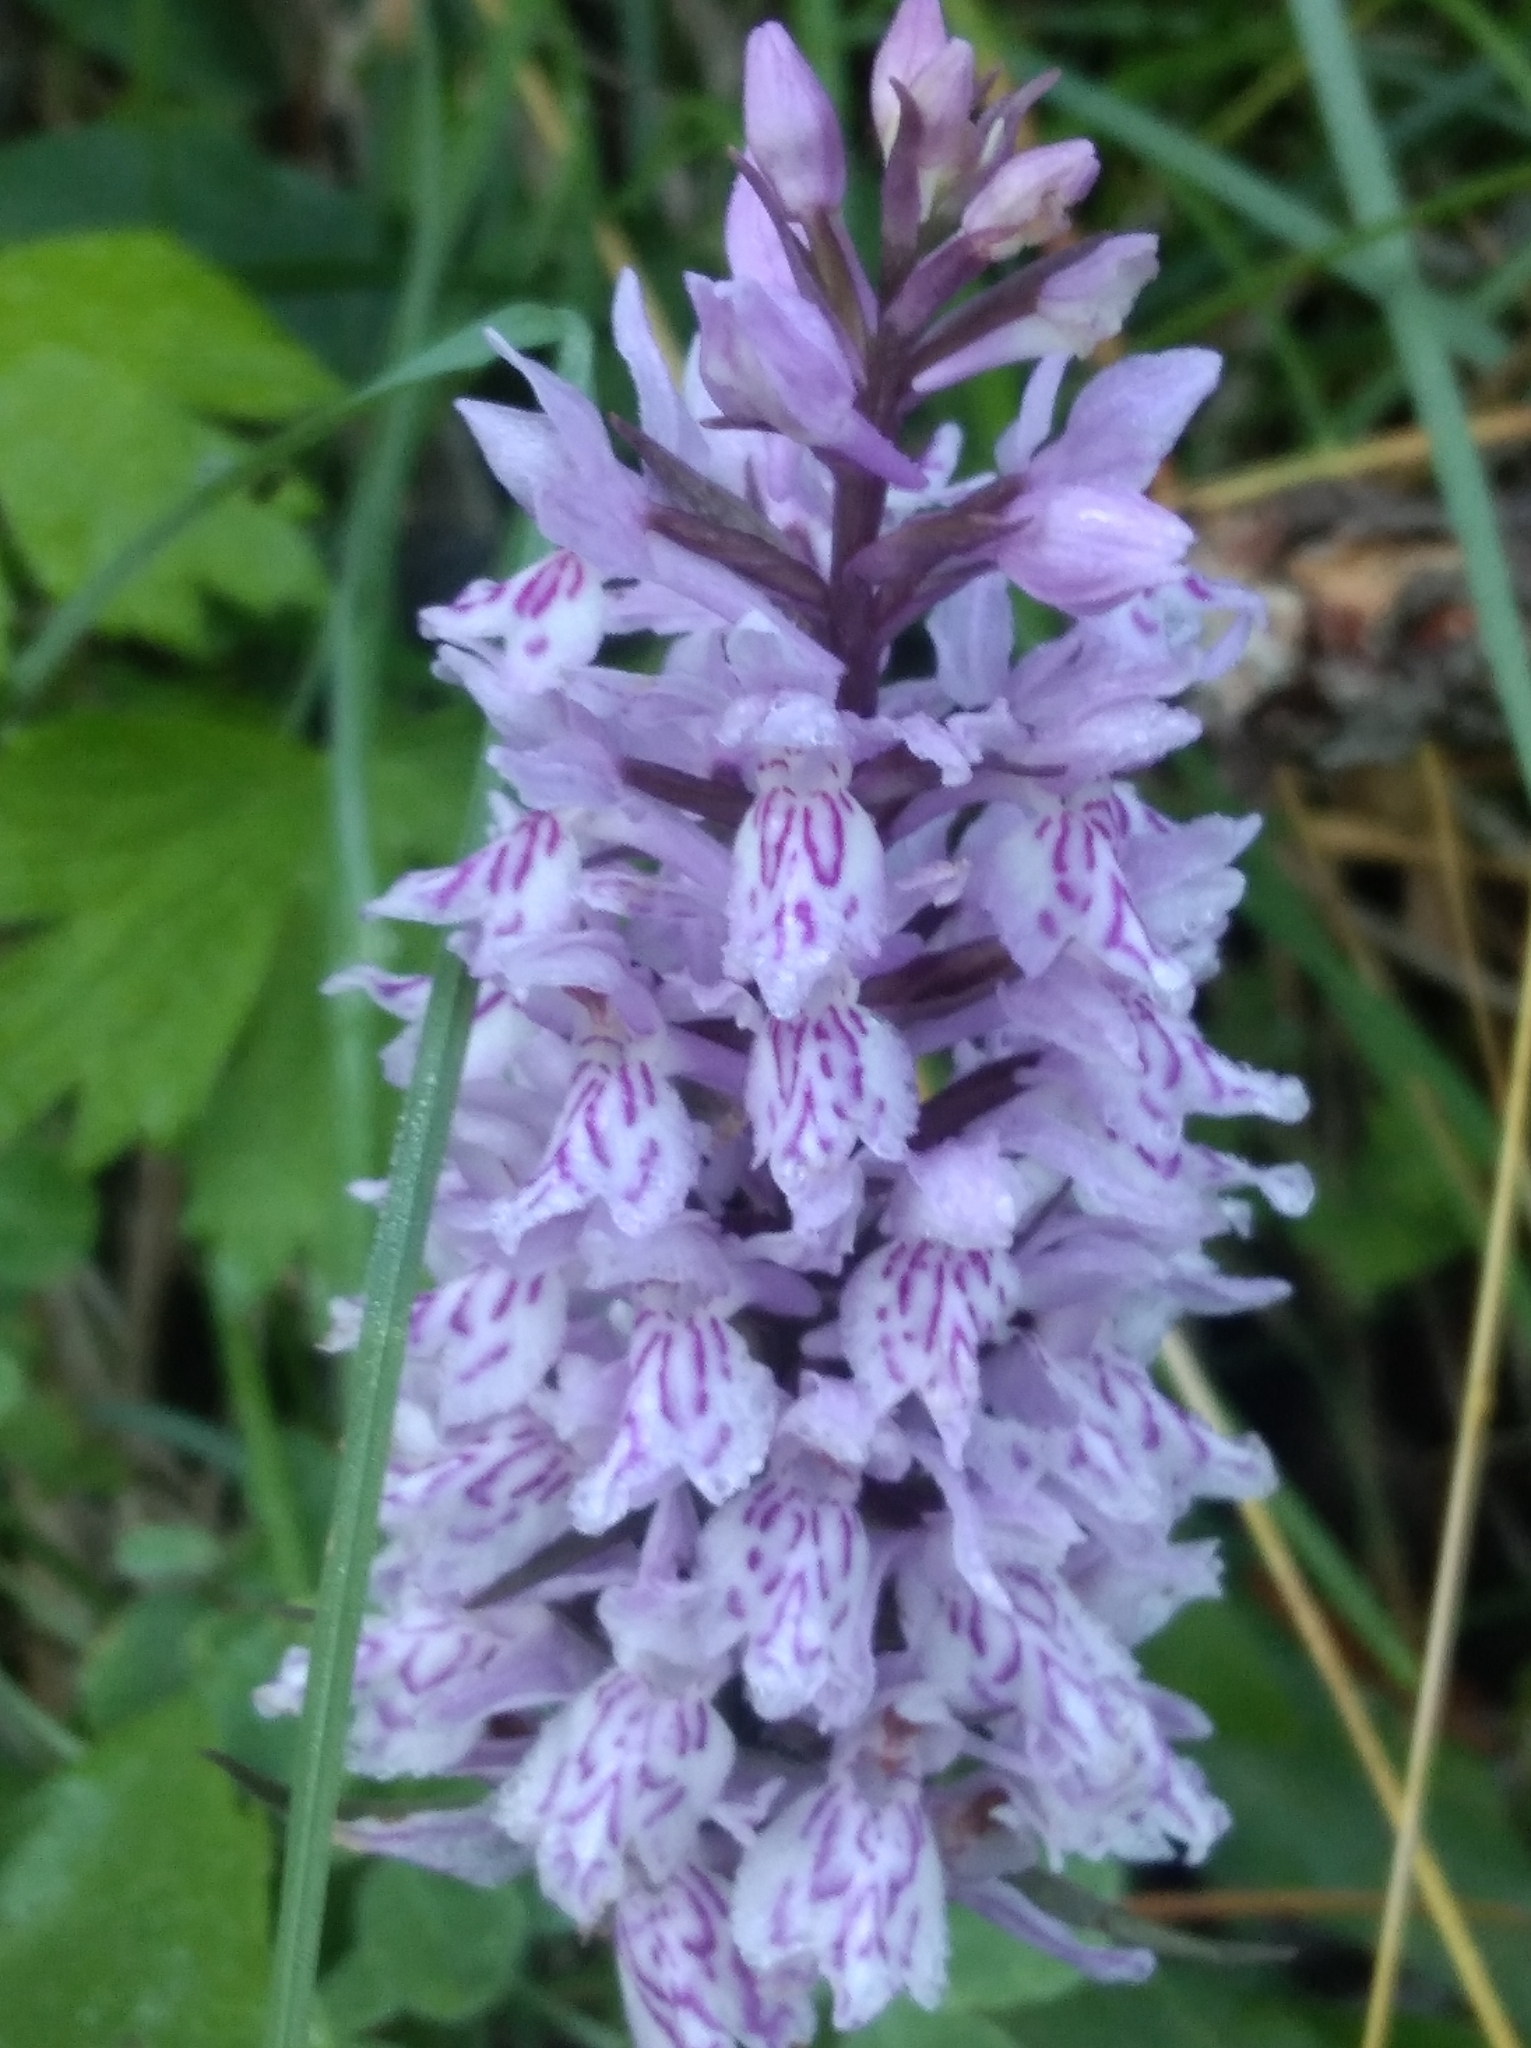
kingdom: Plantae
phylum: Tracheophyta
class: Liliopsida
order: Asparagales
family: Orchidaceae
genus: Dactylorhiza
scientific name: Dactylorhiza maculata
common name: Heath spotted-orchid
